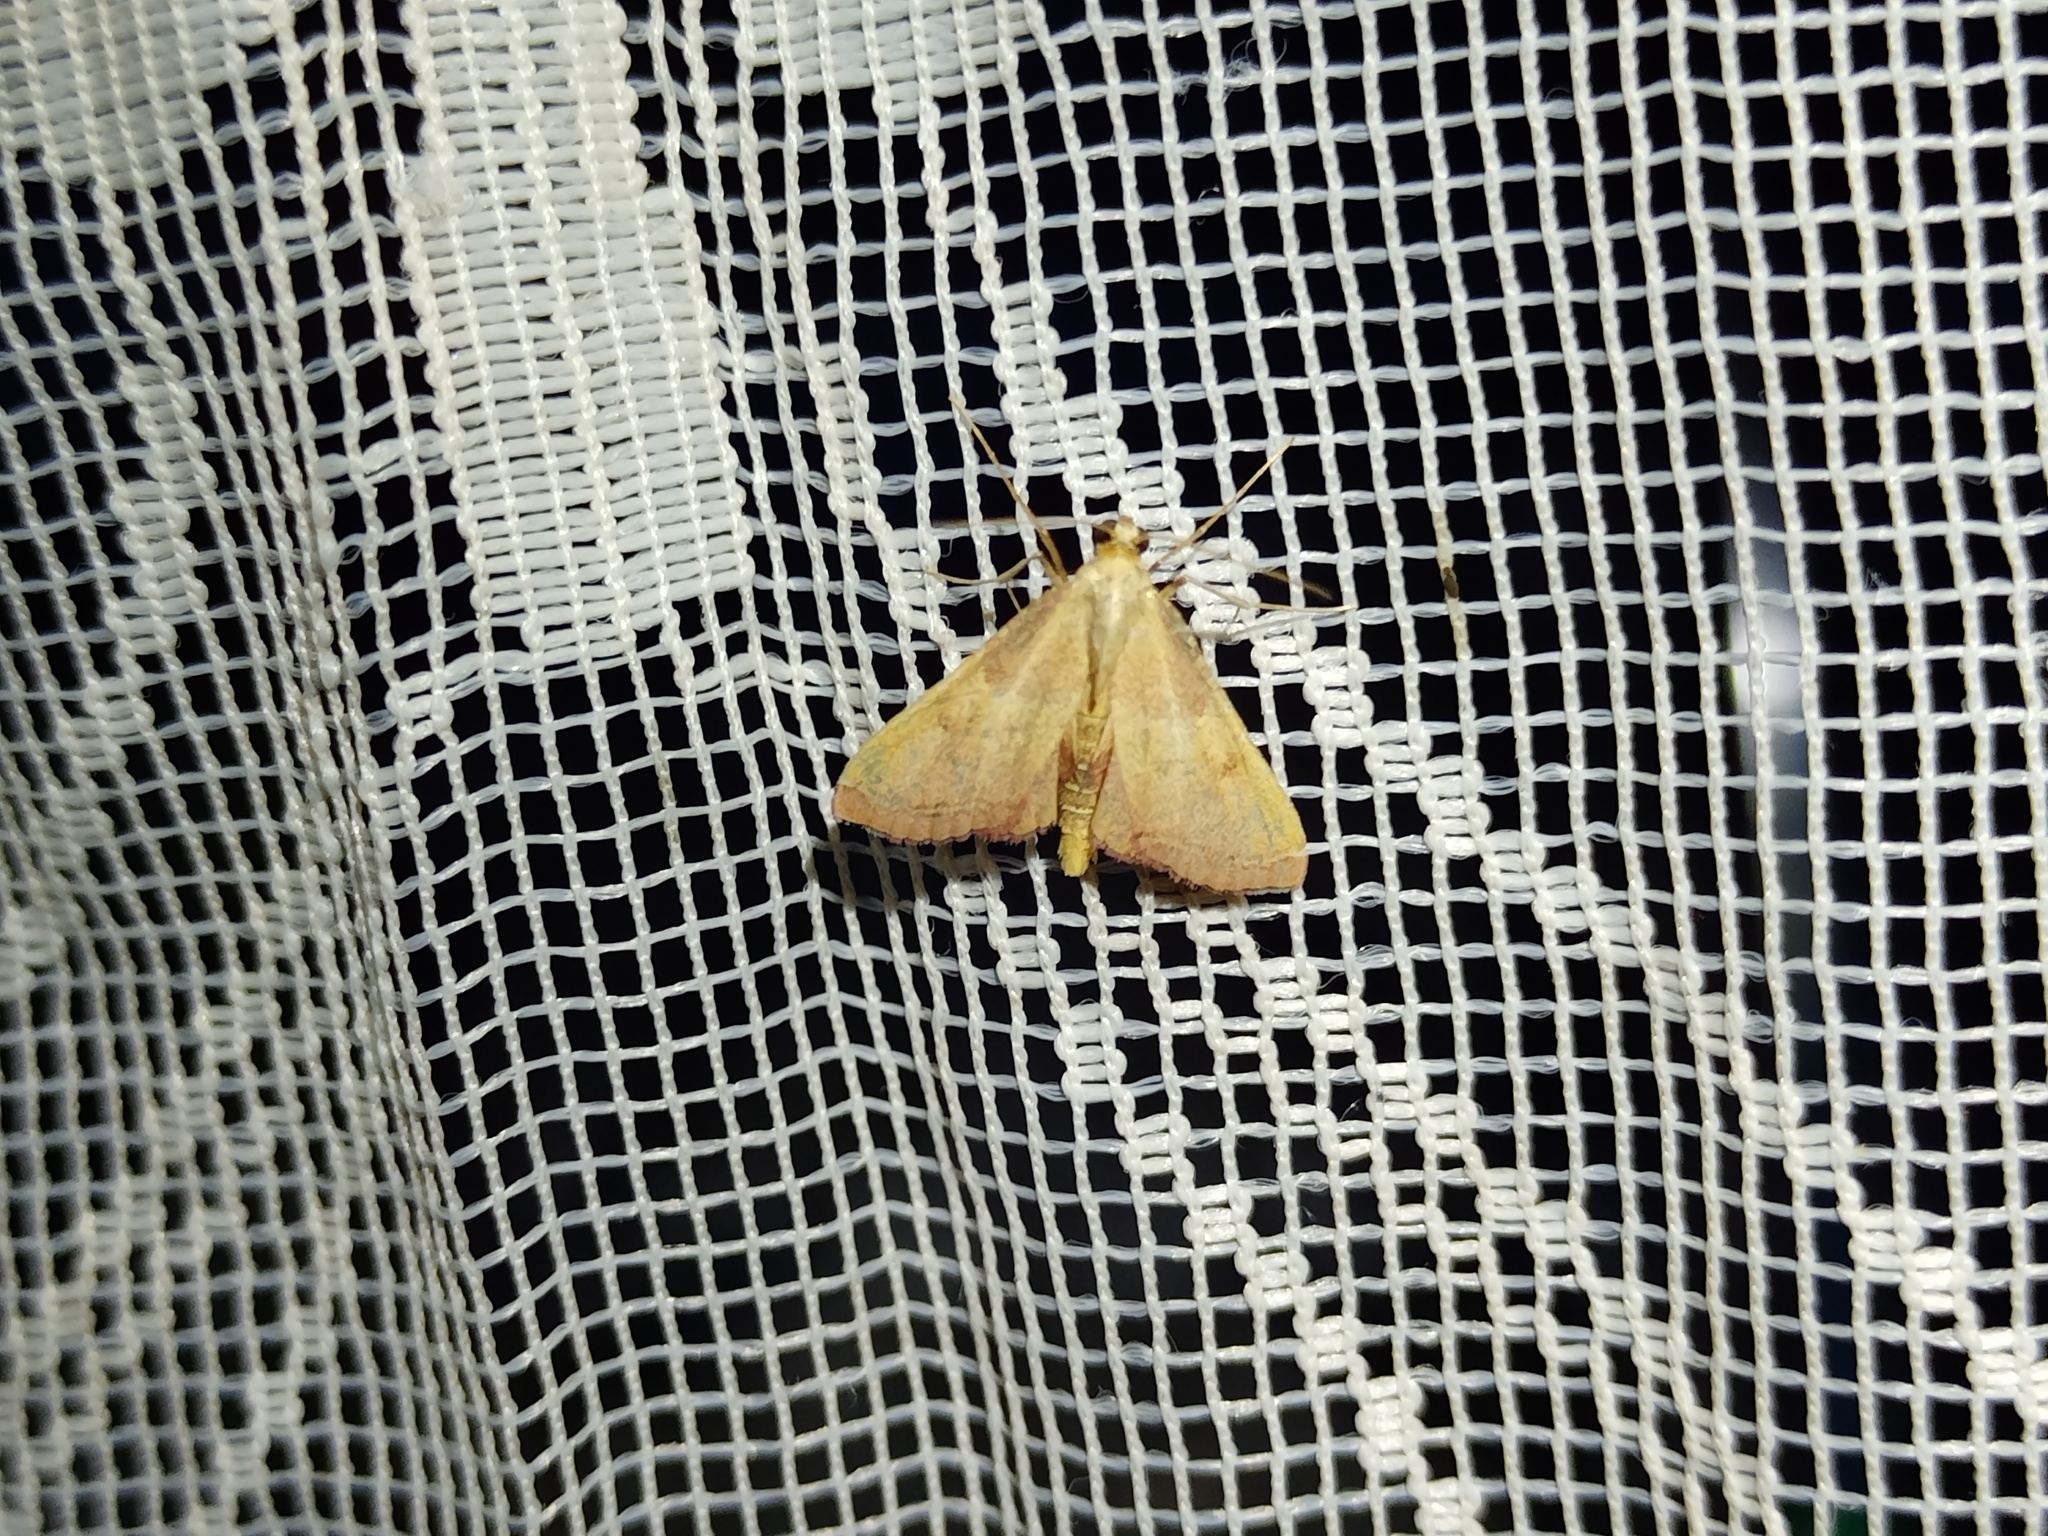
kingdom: Animalia
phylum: Arthropoda
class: Insecta
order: Lepidoptera
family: Pyralidae
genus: Endotricha
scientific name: Endotricha flammealis
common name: Rosy tabby
